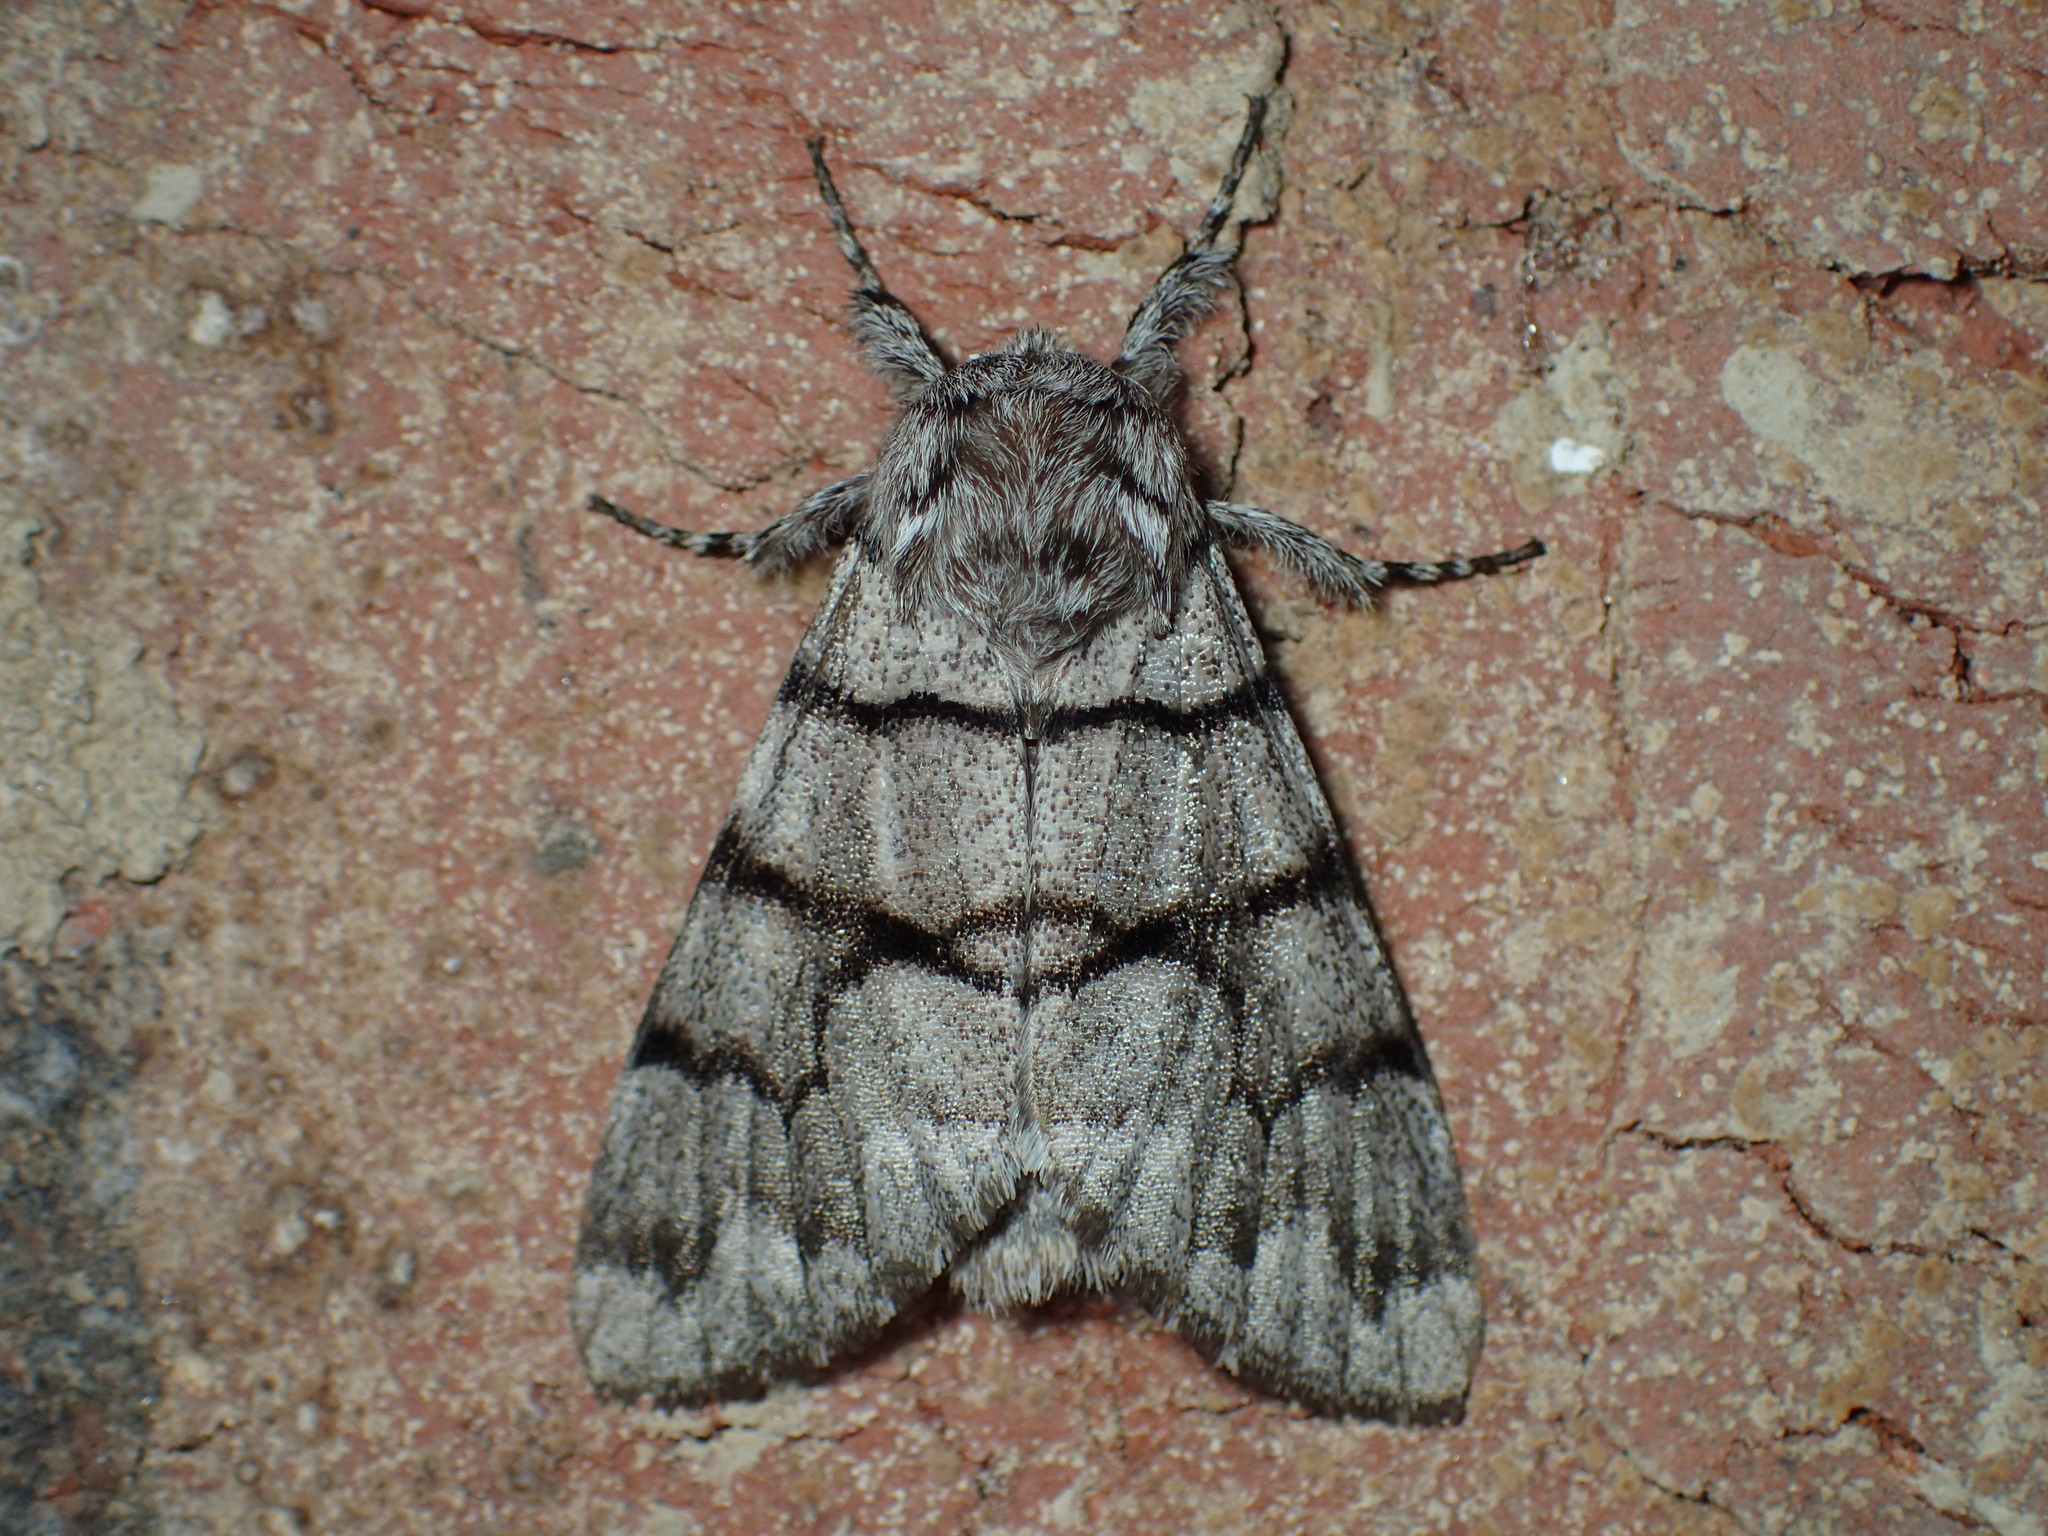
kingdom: Animalia
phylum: Arthropoda
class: Insecta
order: Lepidoptera
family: Noctuidae
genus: Panthea
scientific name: Panthea furcilla
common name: Eastern panthea moth
